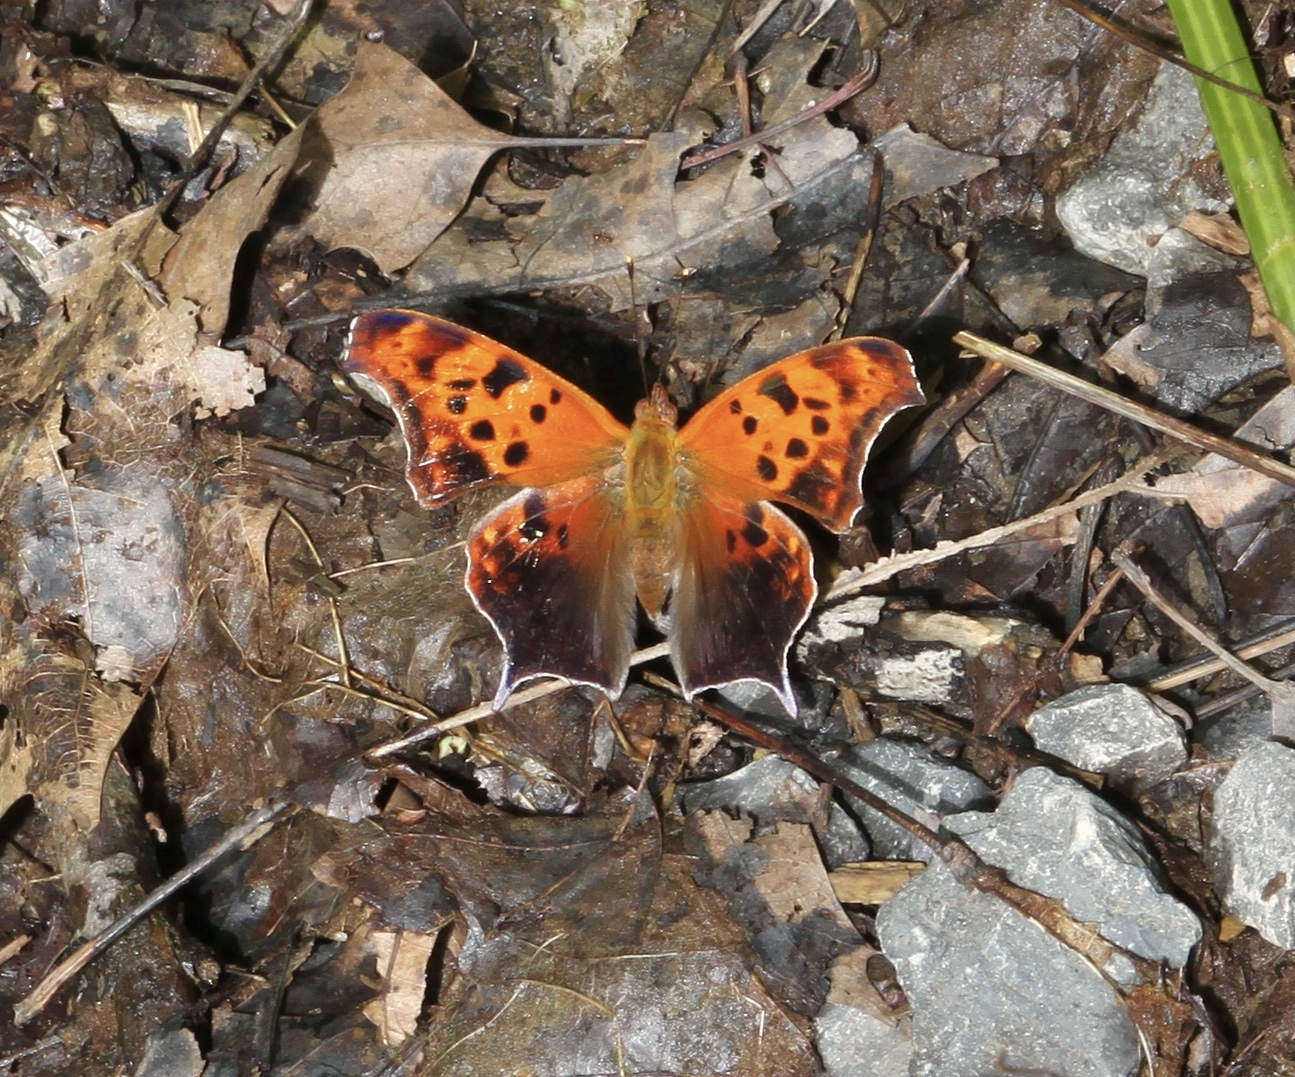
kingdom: Animalia
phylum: Arthropoda
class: Insecta
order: Lepidoptera
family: Nymphalidae
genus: Polygonia
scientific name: Polygonia interrogationis
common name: Question mark
